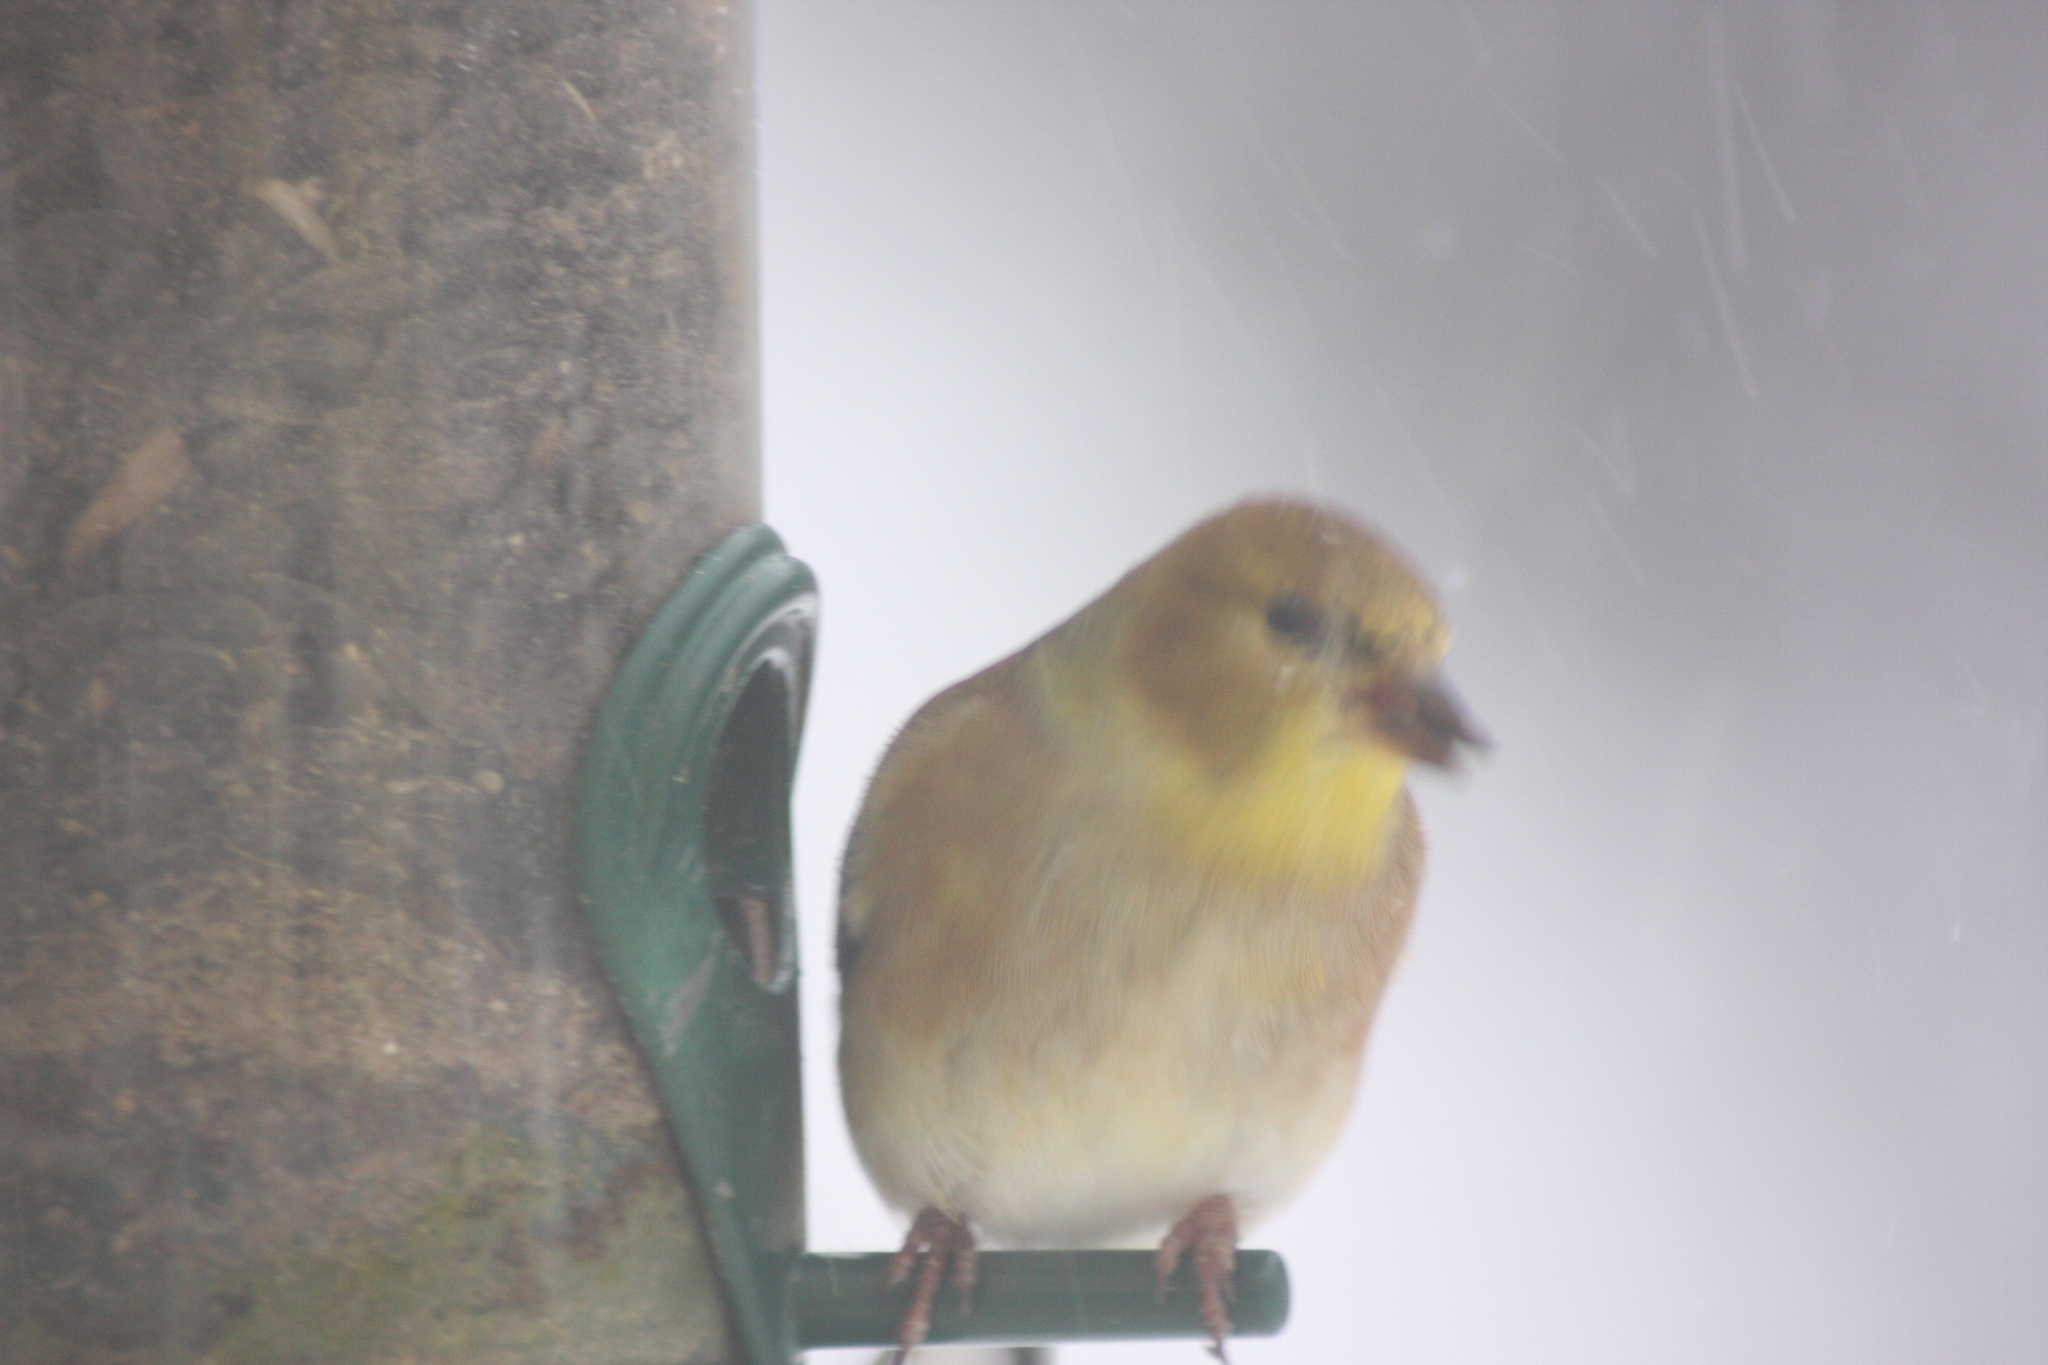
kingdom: Animalia
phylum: Chordata
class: Aves
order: Passeriformes
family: Fringillidae
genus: Spinus
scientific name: Spinus tristis
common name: American goldfinch
